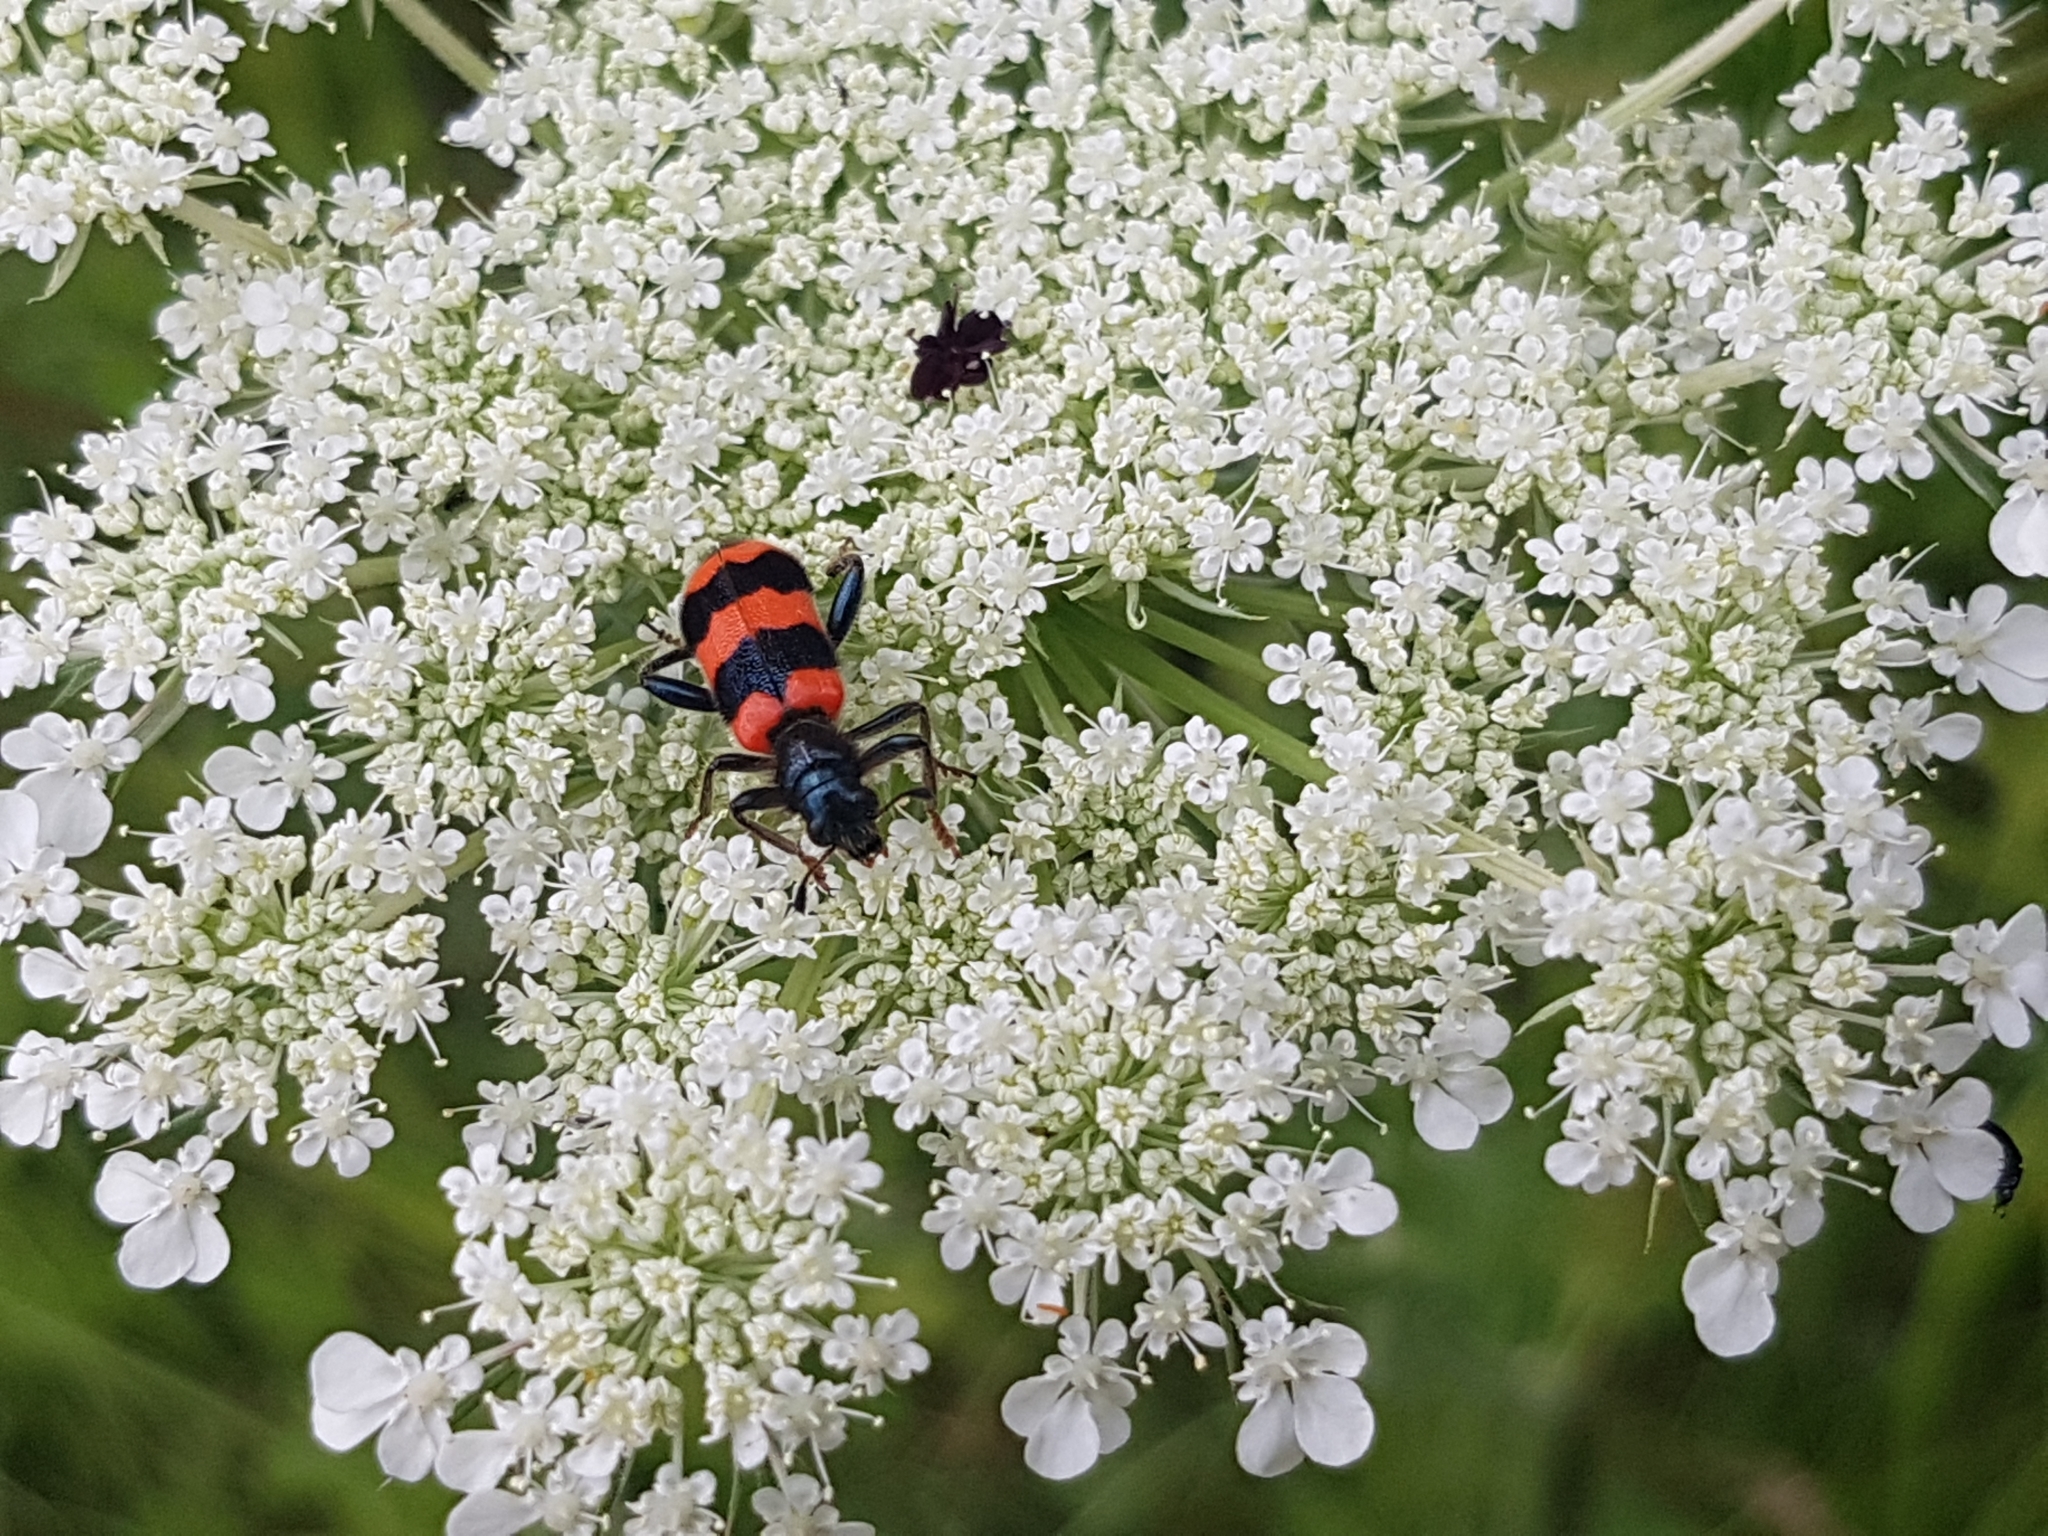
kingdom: Animalia
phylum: Arthropoda
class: Insecta
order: Coleoptera
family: Cleridae
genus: Trichodes
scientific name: Trichodes apiarius
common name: Bee-eating beetle
